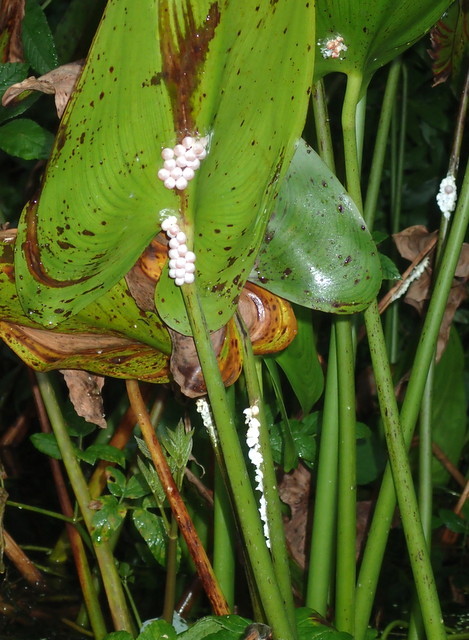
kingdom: Animalia
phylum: Mollusca
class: Gastropoda
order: Architaenioglossa
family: Ampullariidae
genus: Pomacea
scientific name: Pomacea paludosa
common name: Florida applesnail
